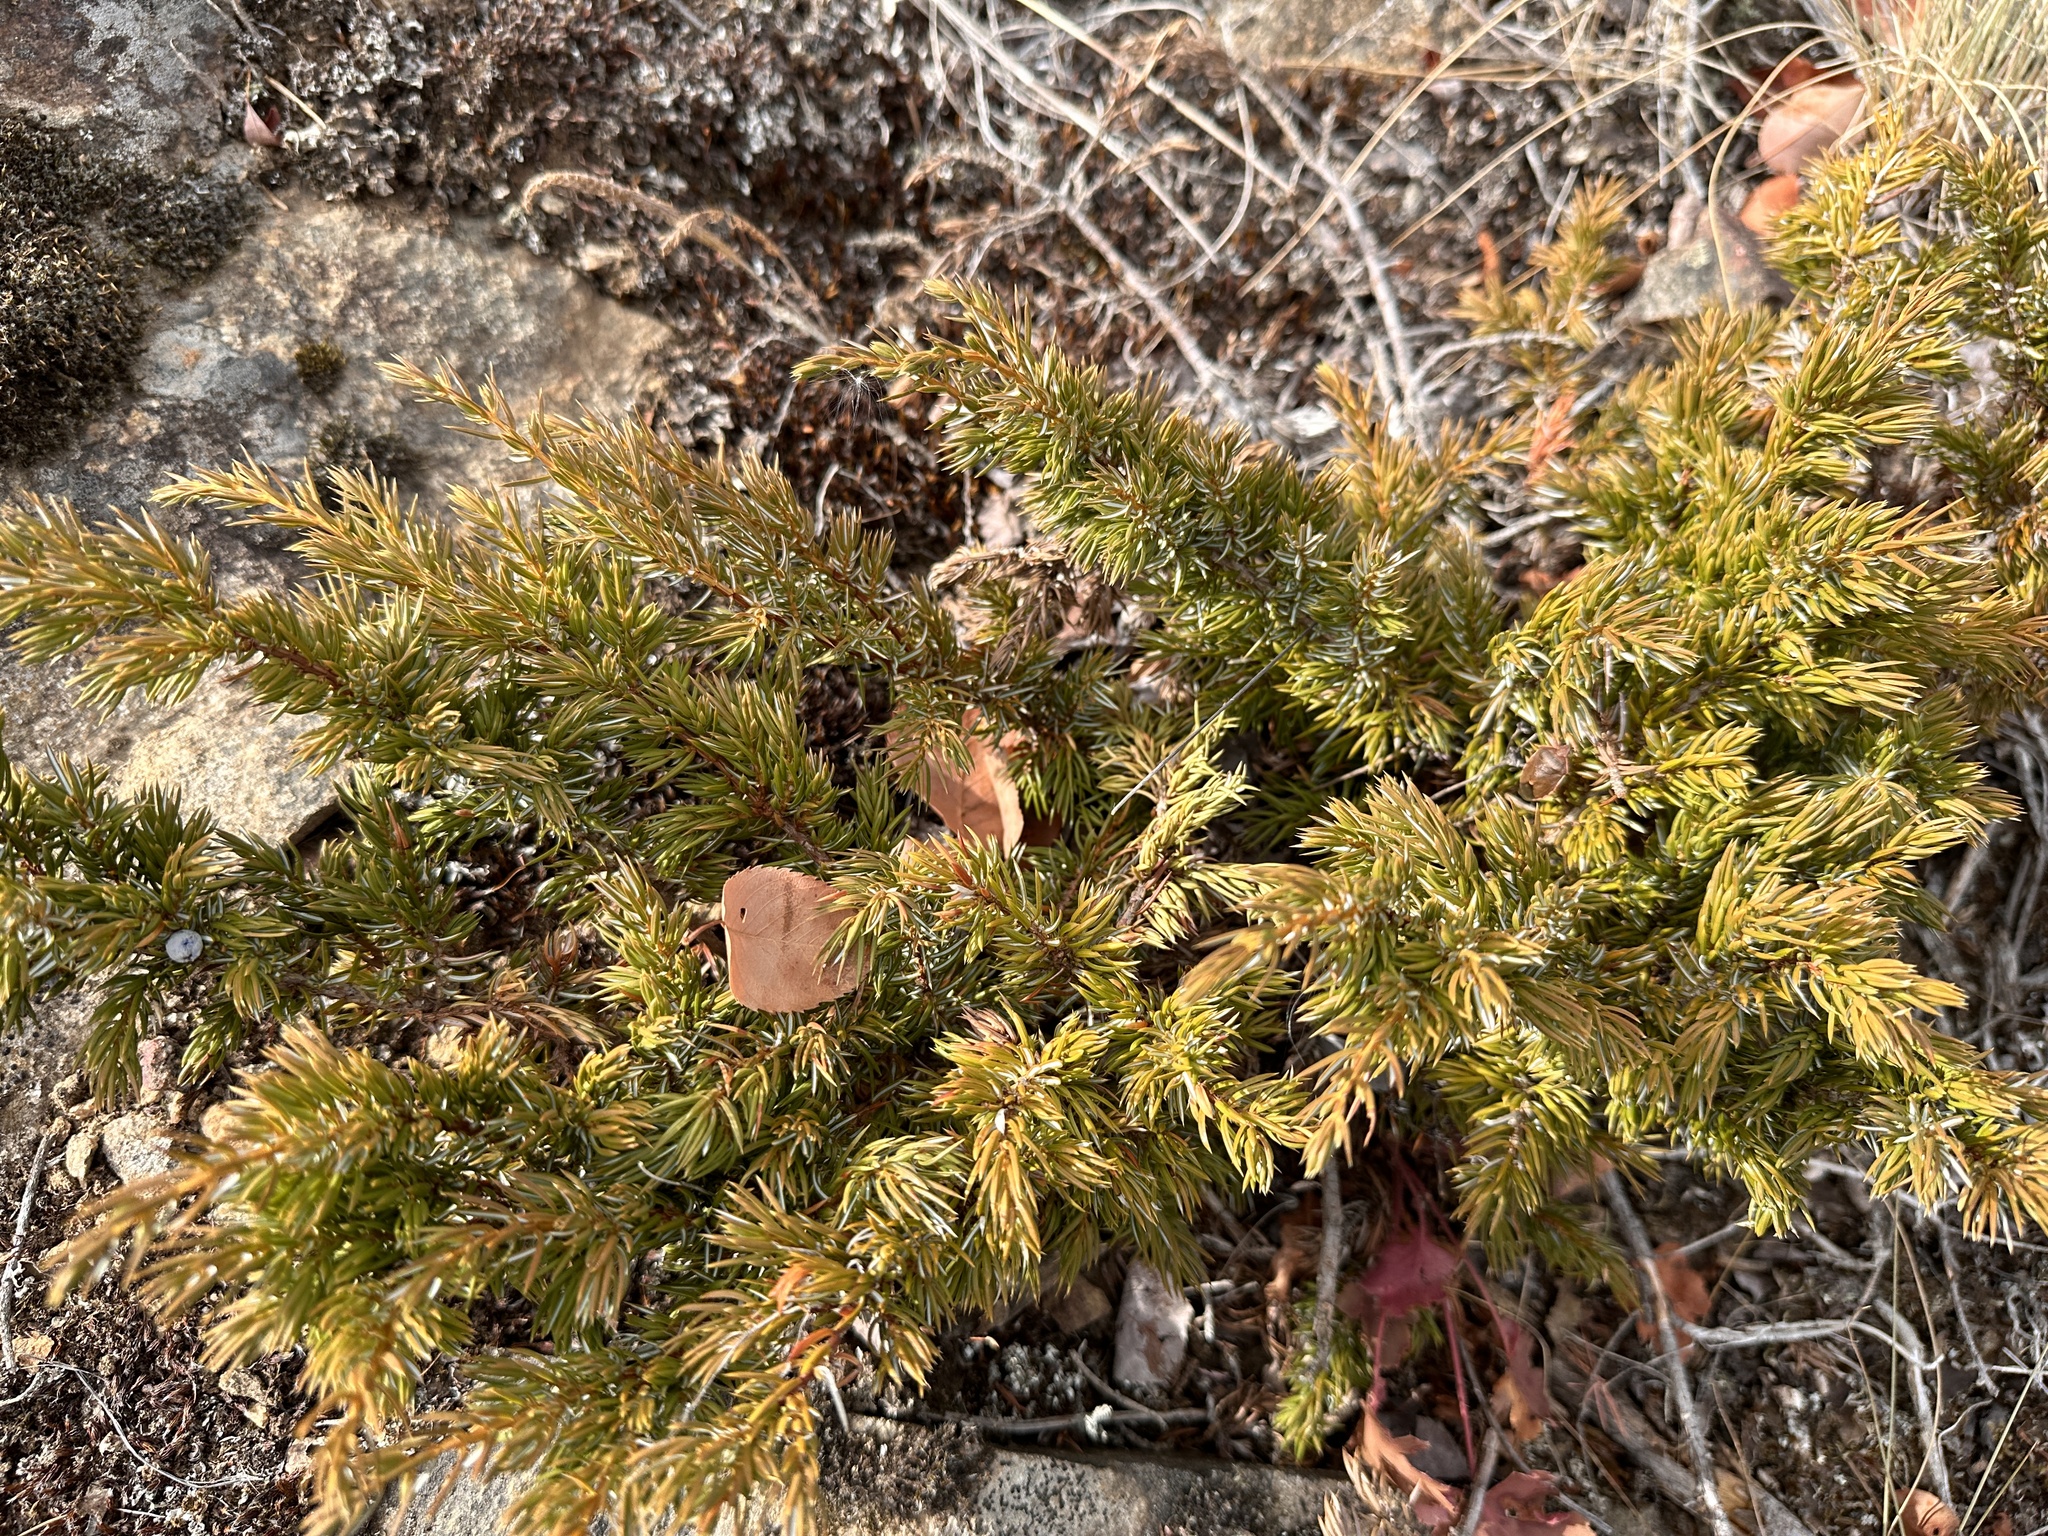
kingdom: Plantae
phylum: Tracheophyta
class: Pinopsida
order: Pinales
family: Cupressaceae
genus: Juniperus
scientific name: Juniperus communis
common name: Common juniper
